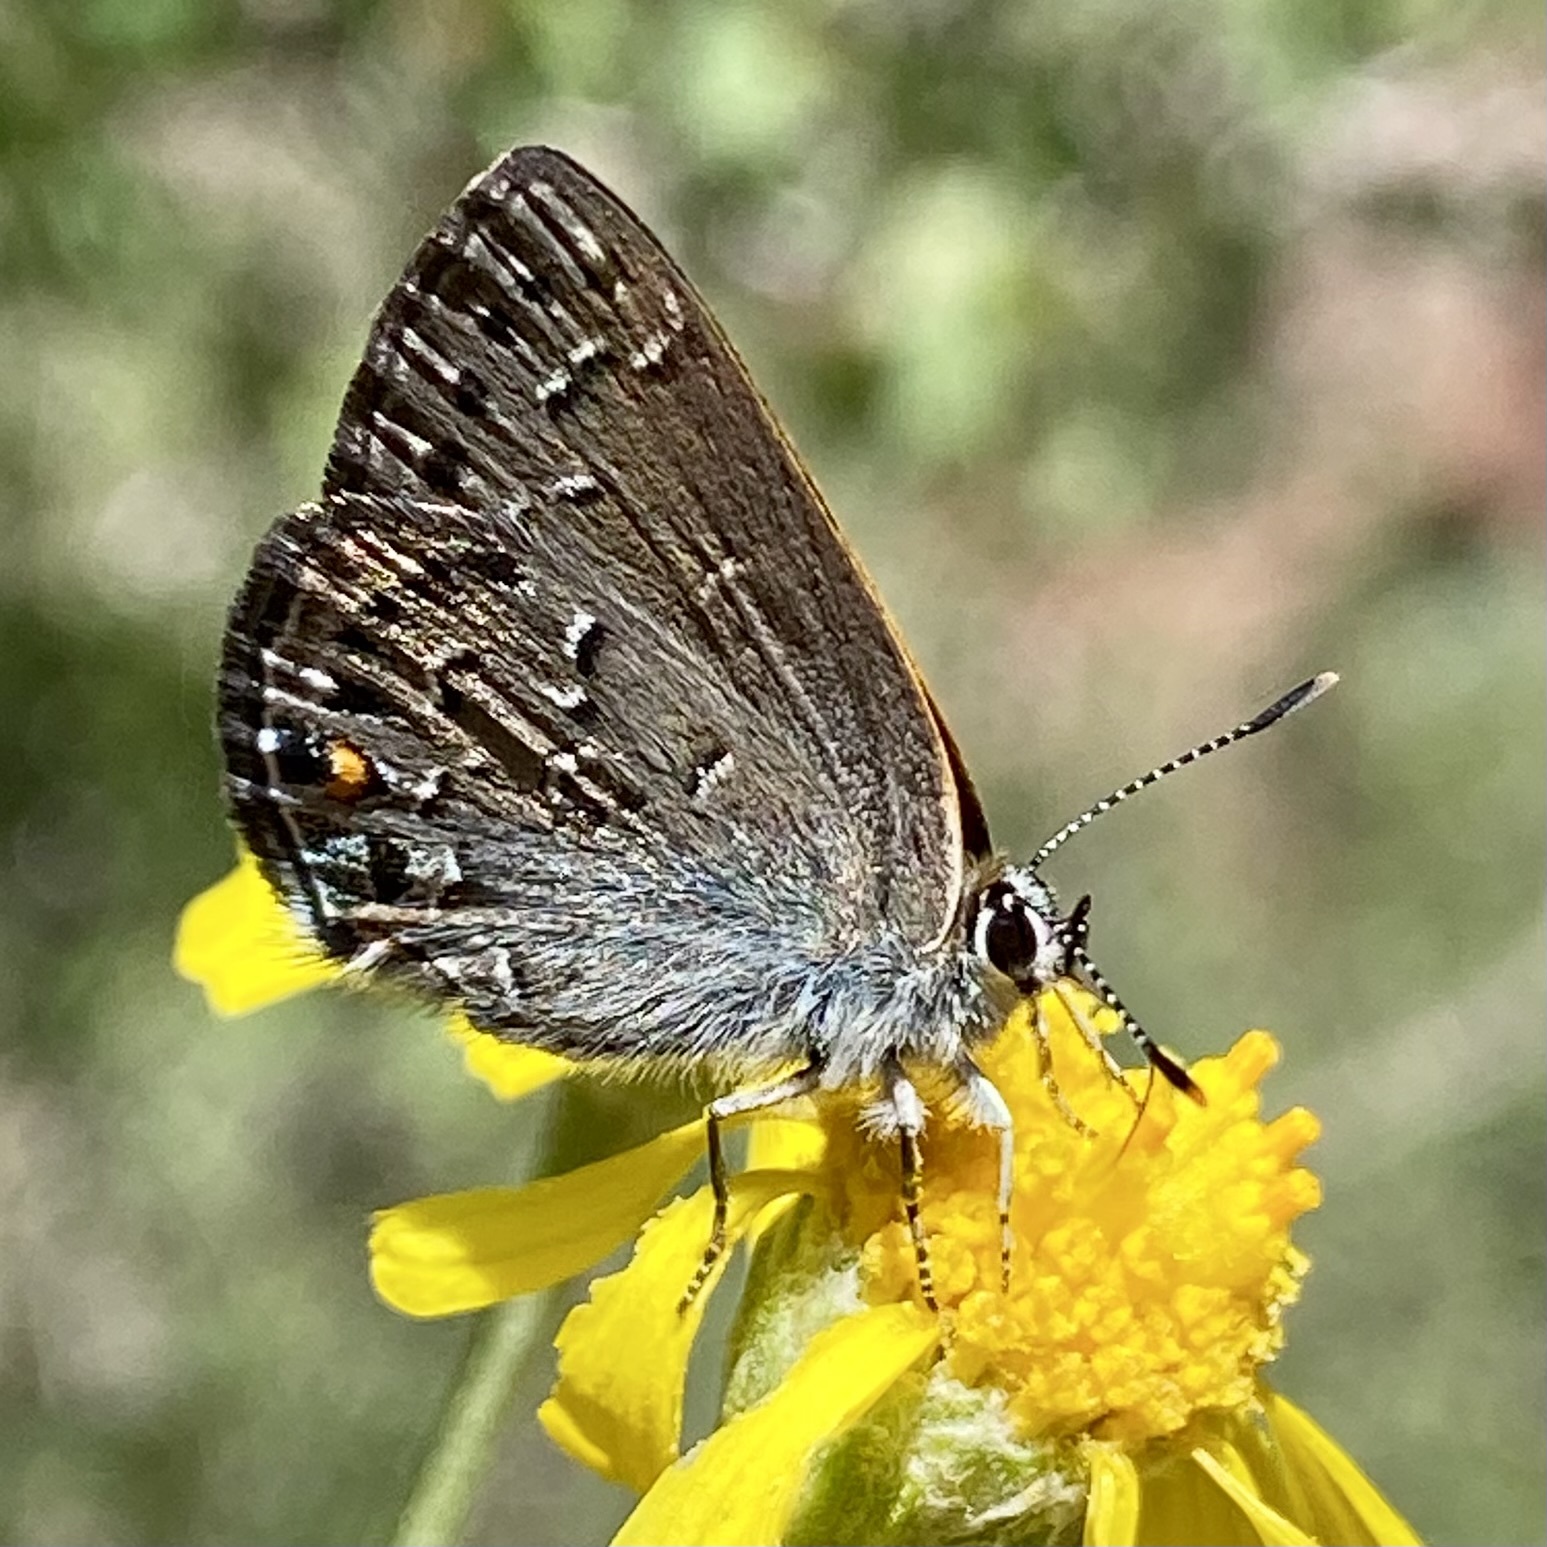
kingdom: Animalia
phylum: Arthropoda
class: Insecta
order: Lepidoptera
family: Lycaenidae
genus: Satyrium
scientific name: Satyrium behrii
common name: Behr's hairstreak
